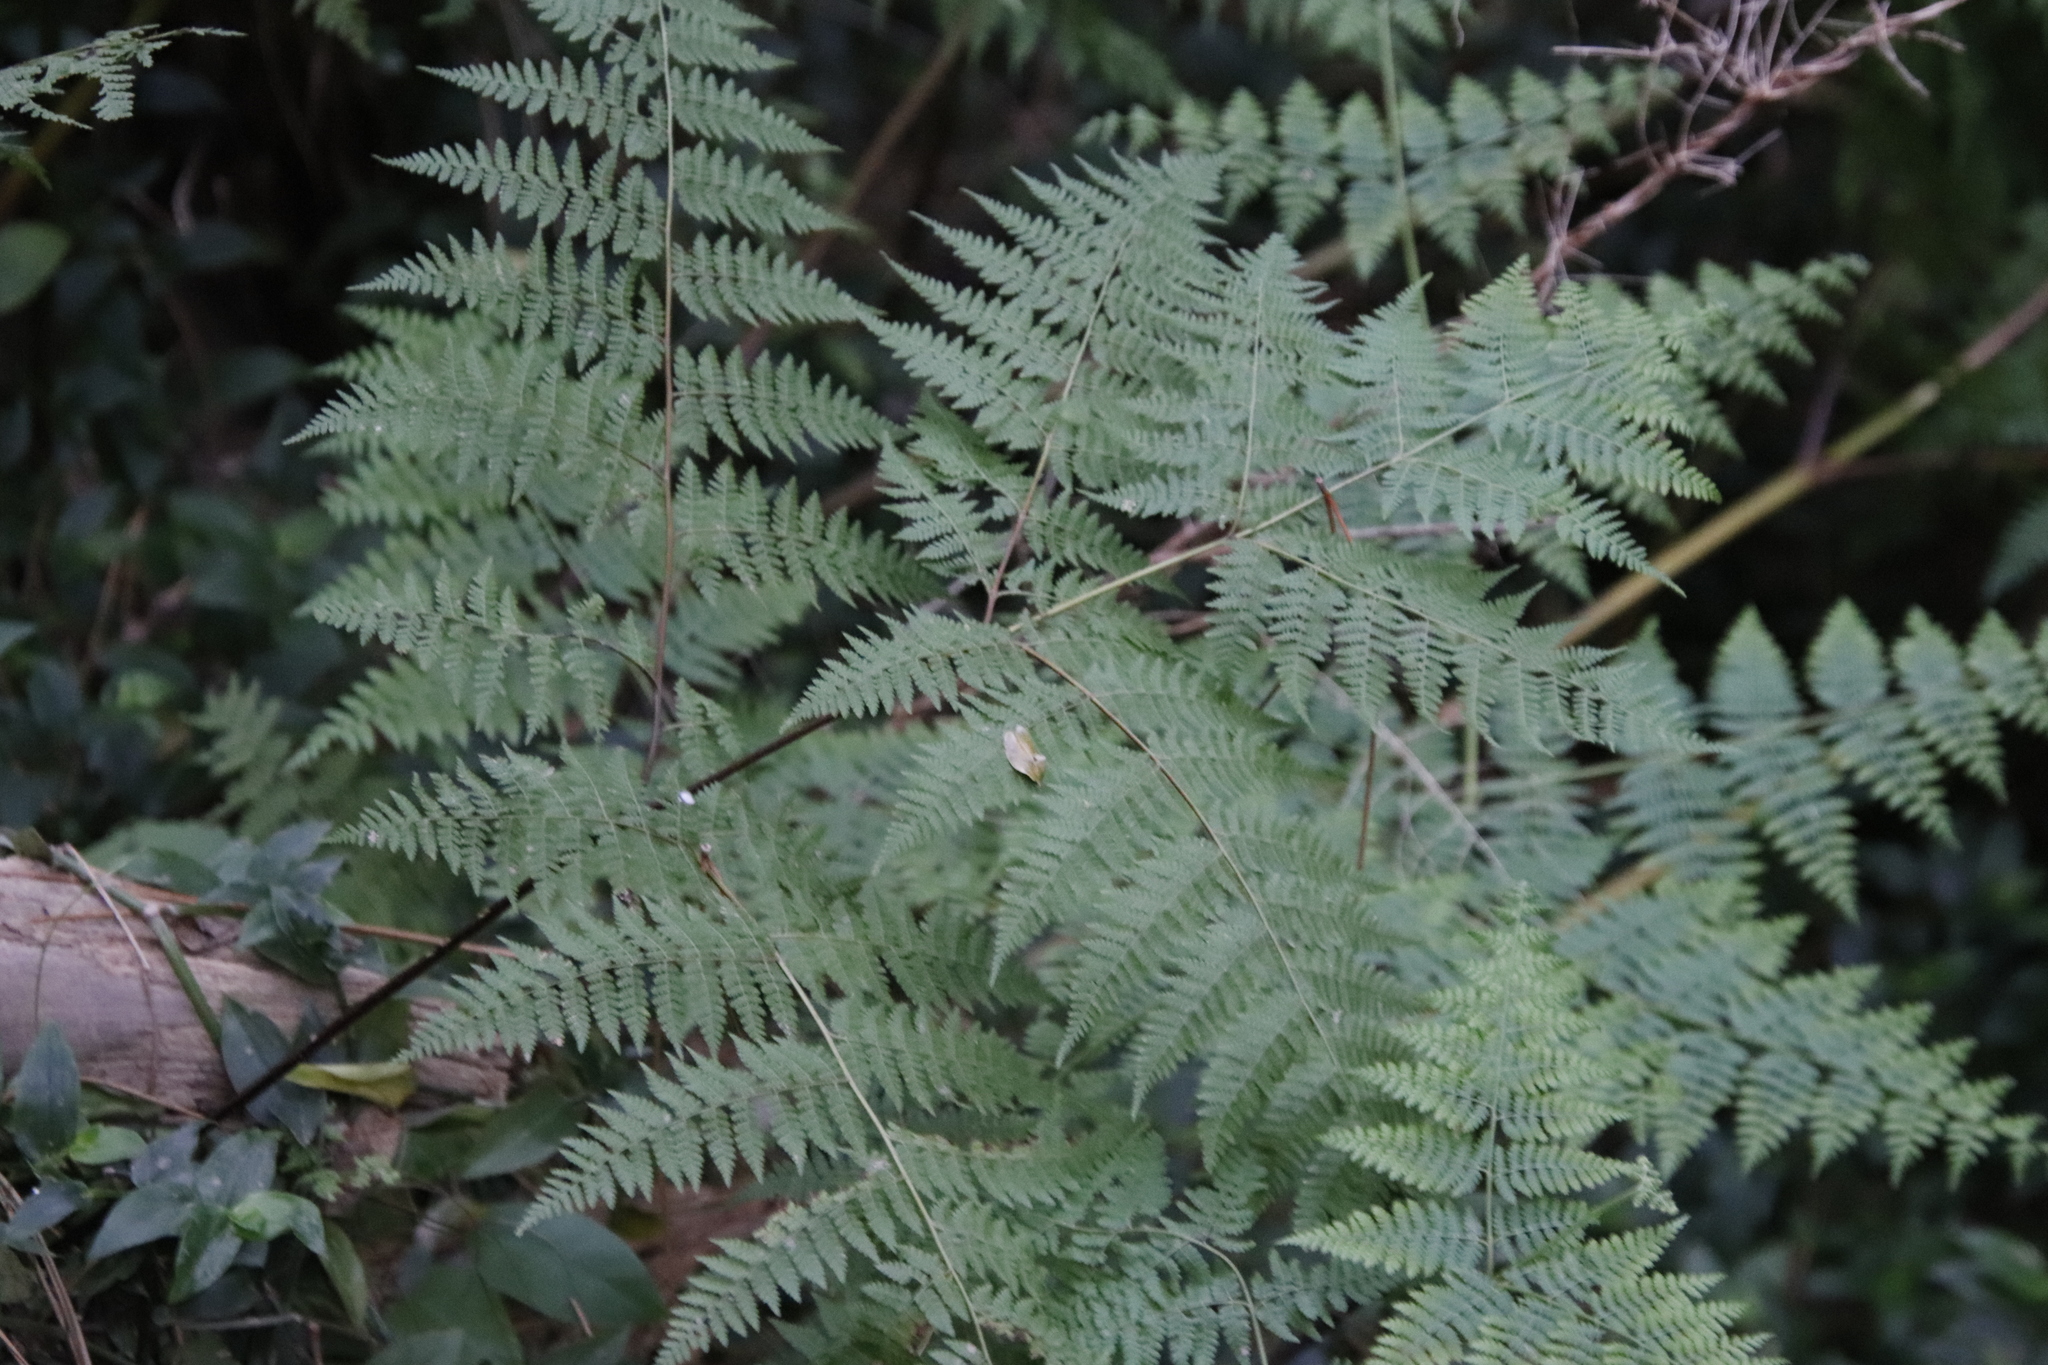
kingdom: Plantae
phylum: Tracheophyta
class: Polypodiopsida
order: Polypodiales
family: Dennstaedtiaceae
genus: Hypolepis
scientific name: Hypolepis sparsisora
